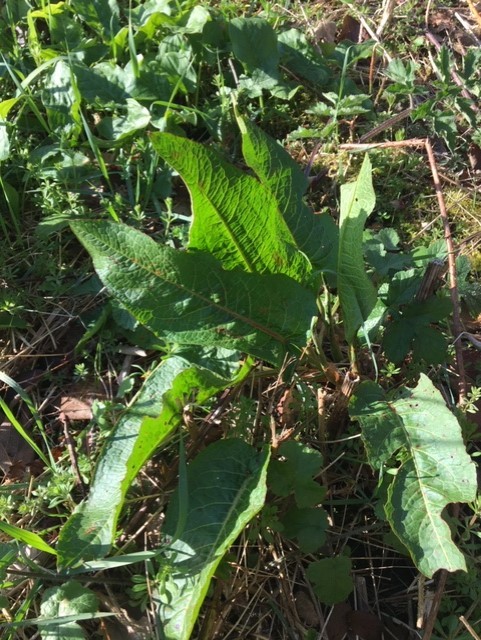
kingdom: Plantae
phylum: Tracheophyta
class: Magnoliopsida
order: Caryophyllales
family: Polygonaceae
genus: Rumex
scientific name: Rumex obtusifolius
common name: Bitter dock
